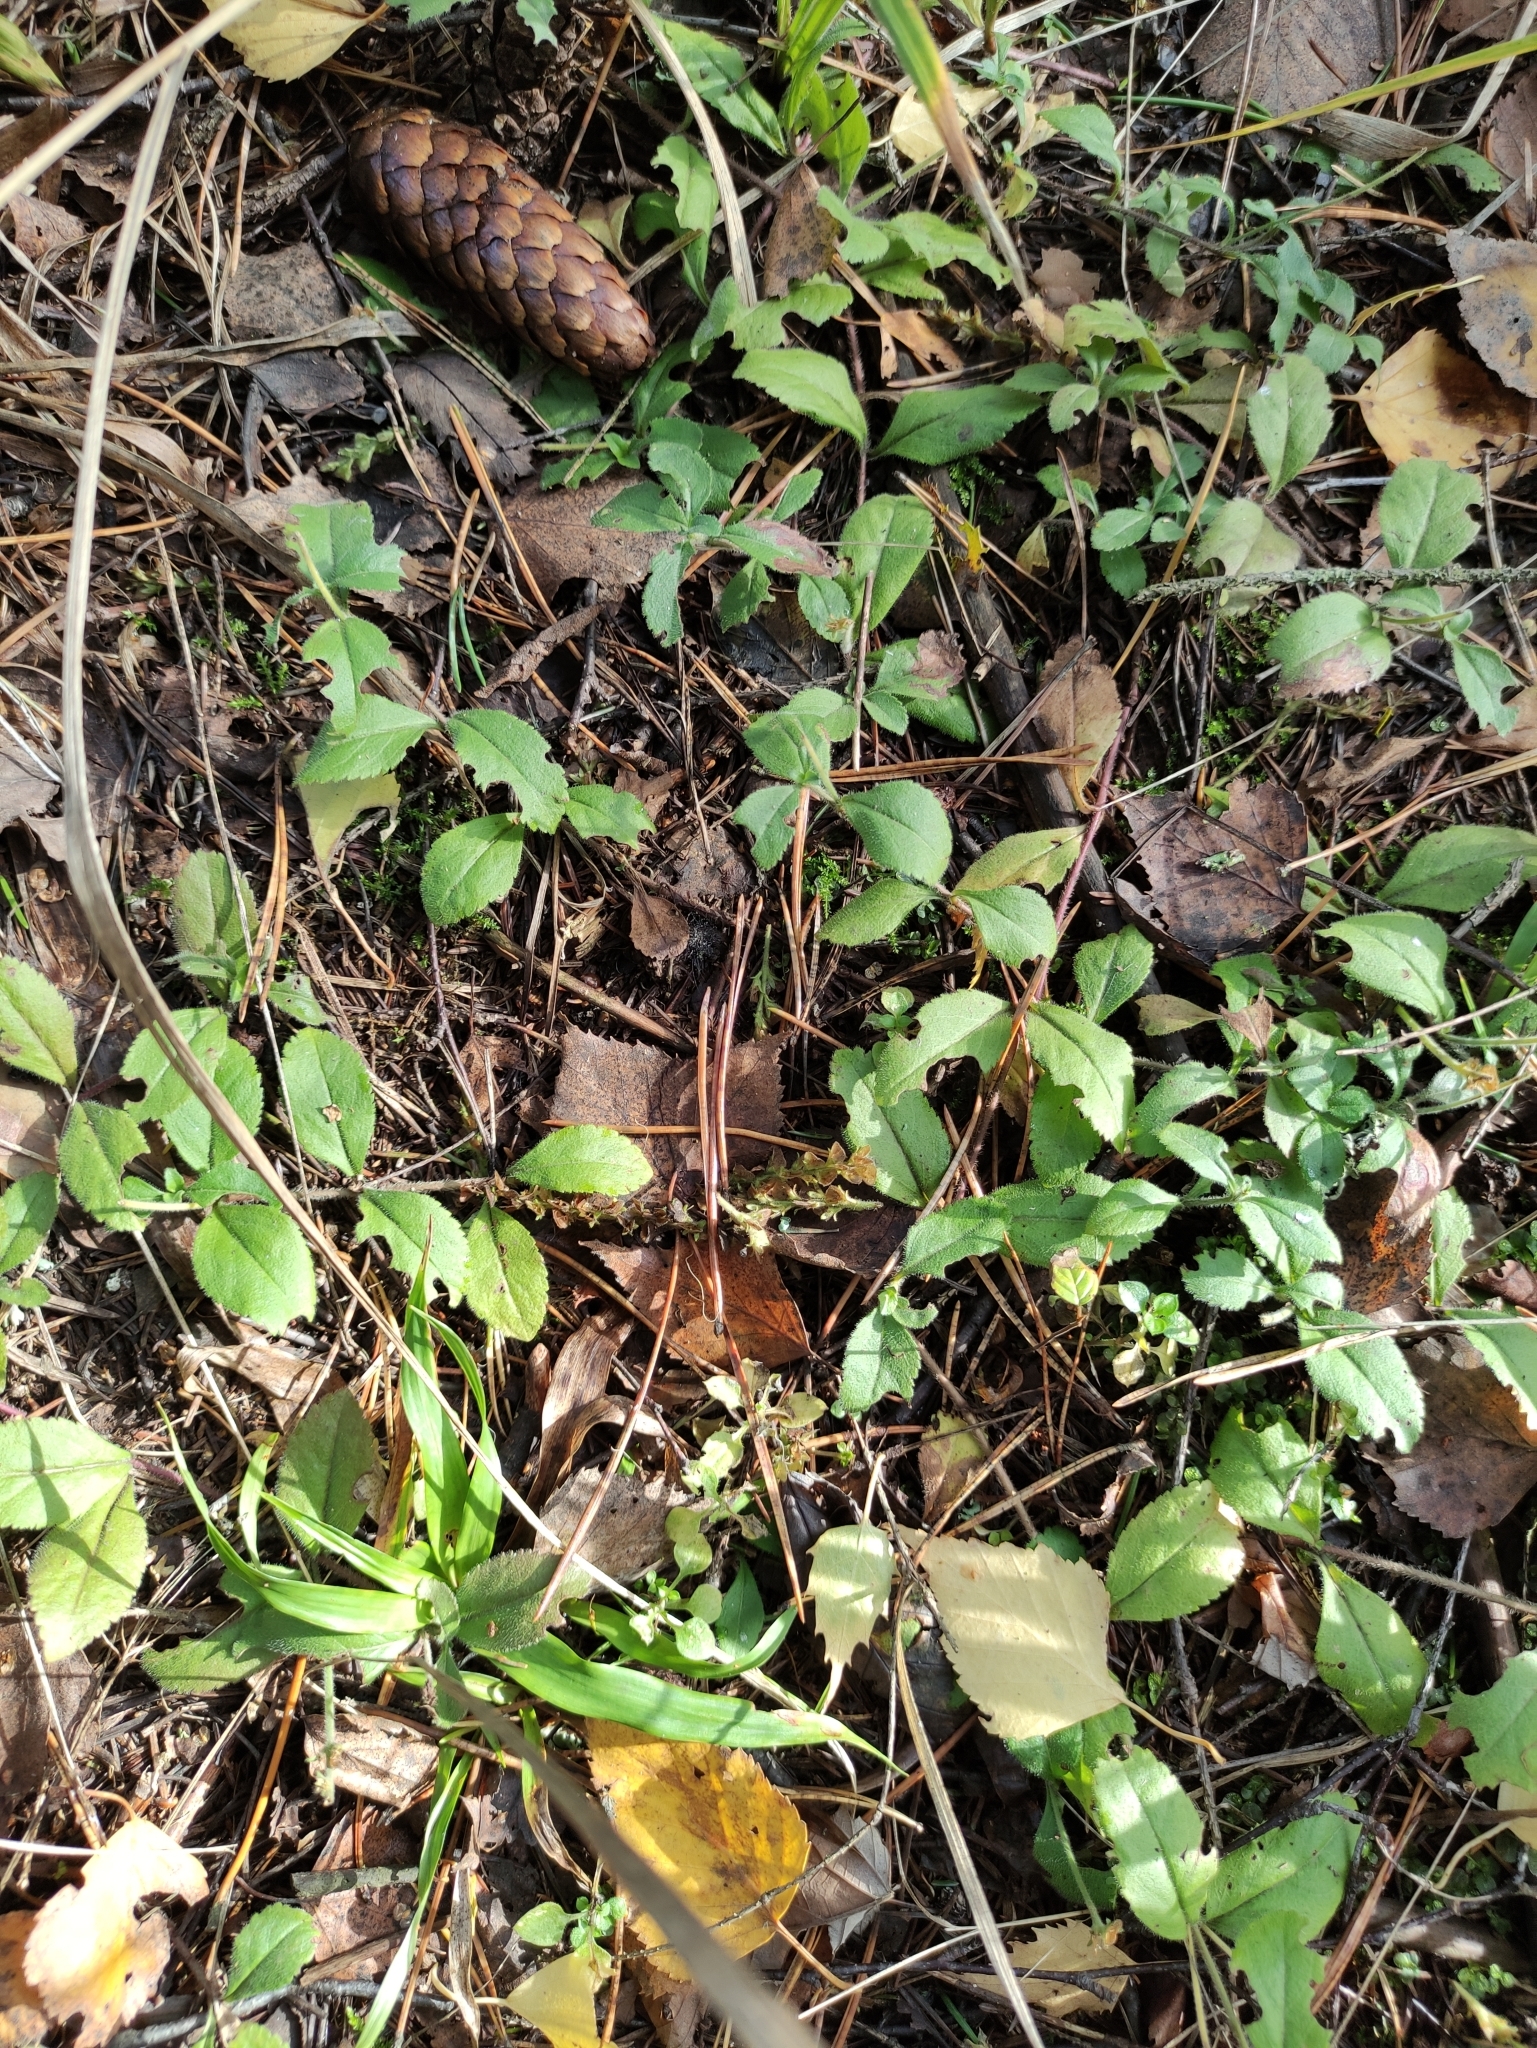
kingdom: Plantae
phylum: Tracheophyta
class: Magnoliopsida
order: Lamiales
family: Plantaginaceae
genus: Veronica
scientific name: Veronica officinalis
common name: Common speedwell
